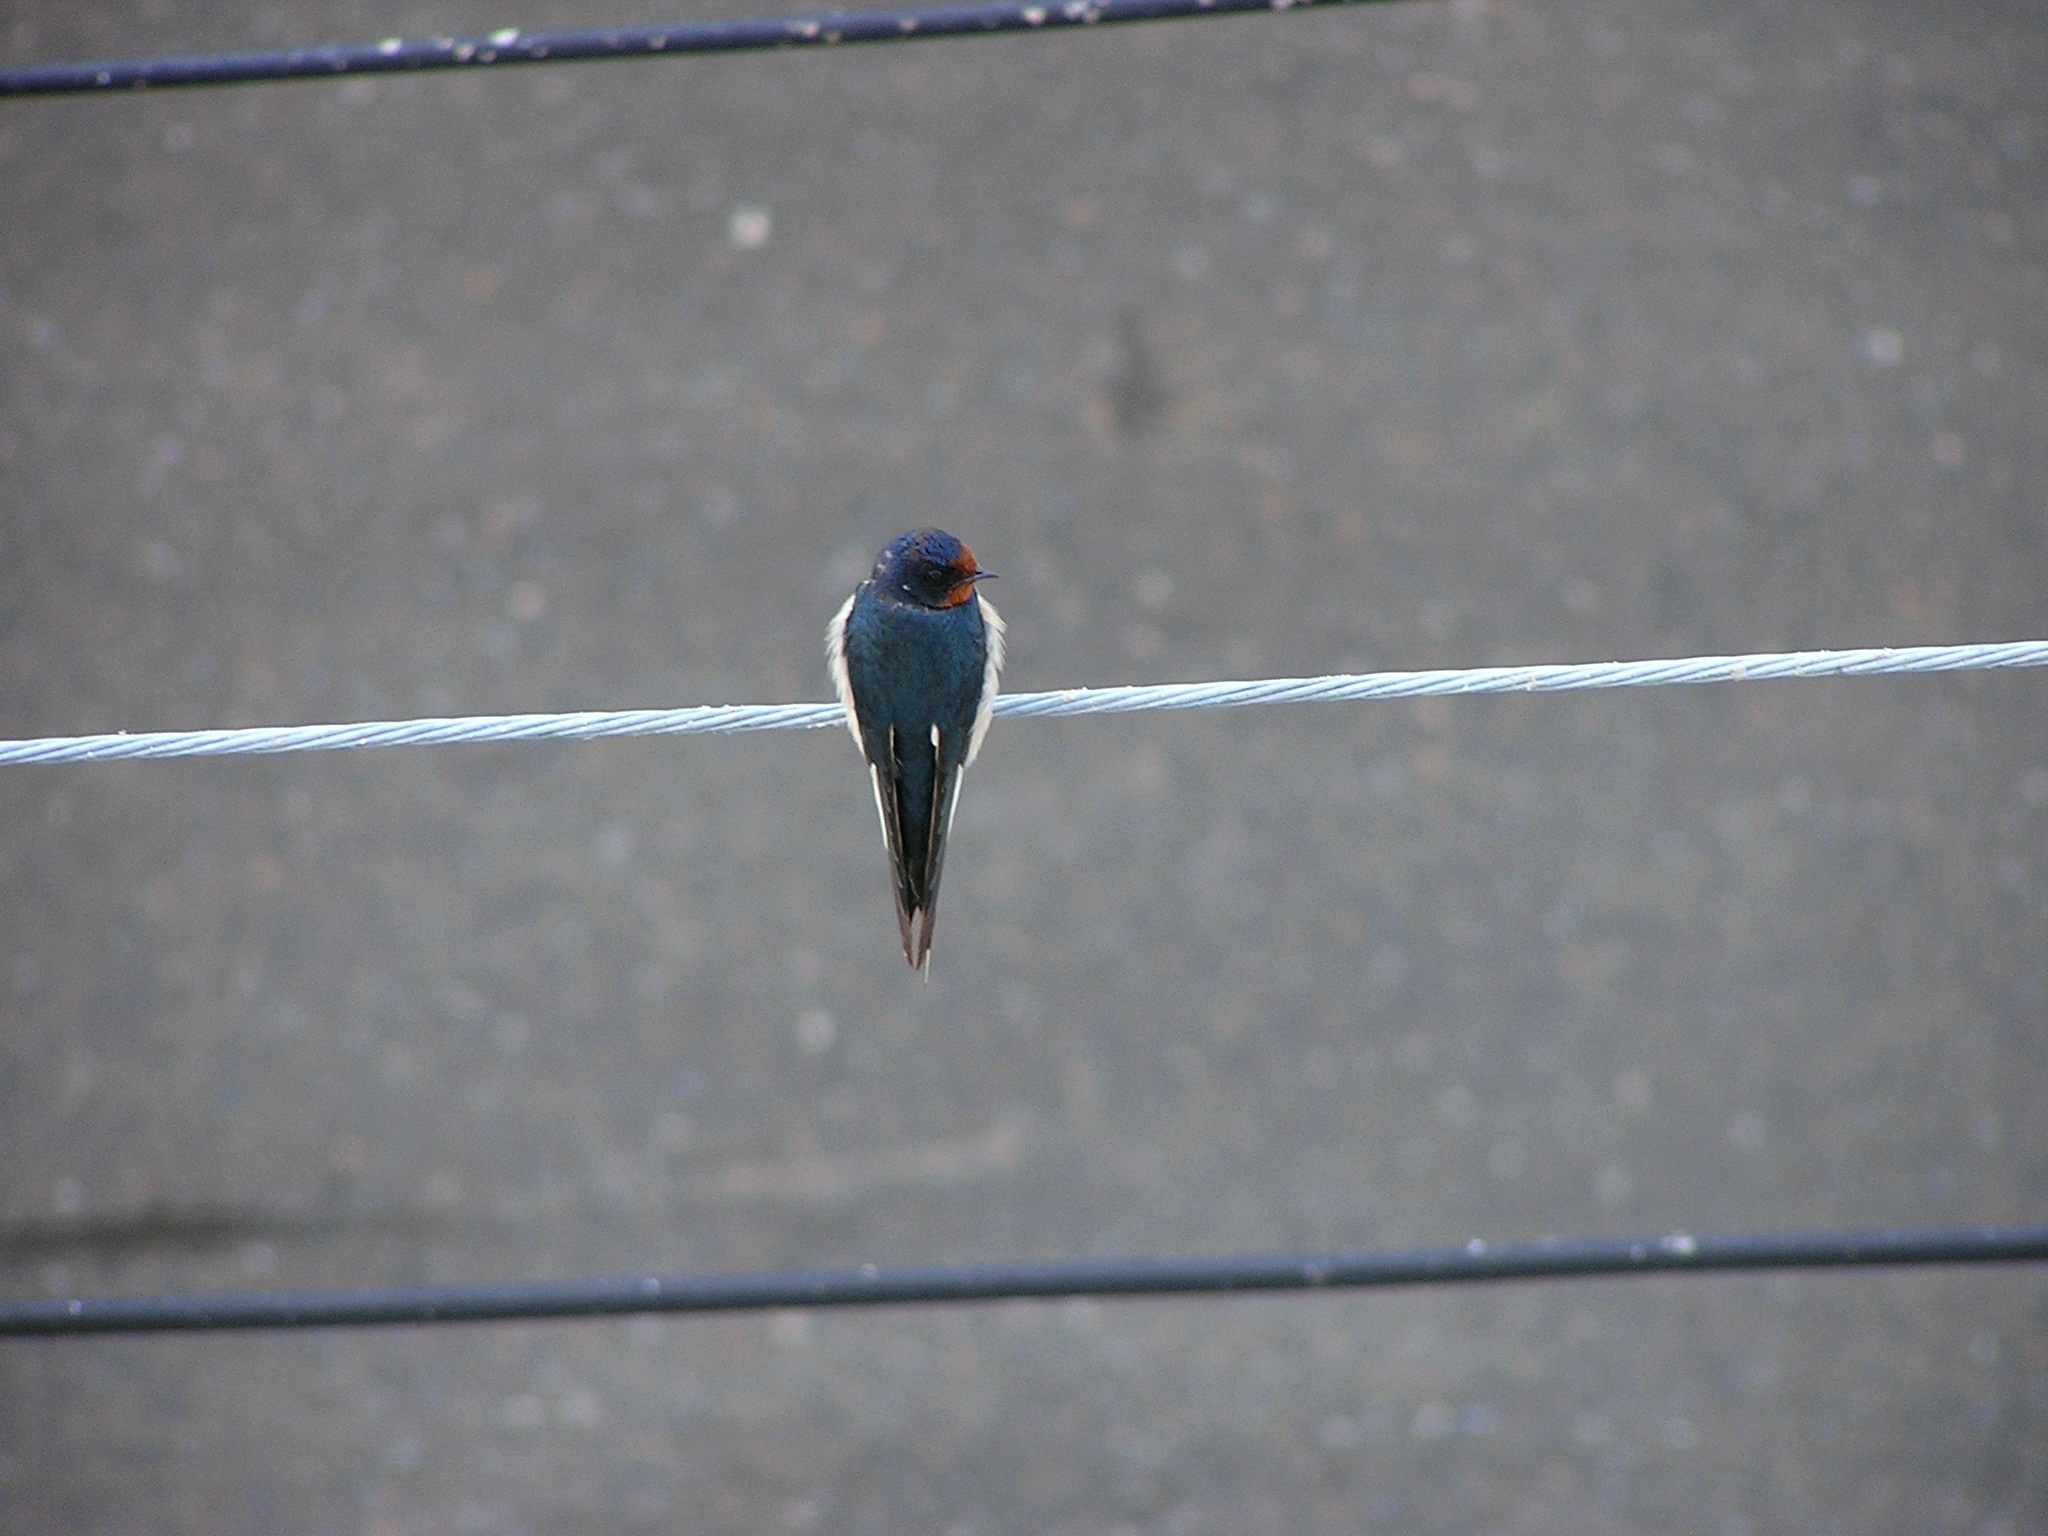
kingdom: Animalia
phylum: Chordata
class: Aves
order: Passeriformes
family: Hirundinidae
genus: Hirundo
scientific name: Hirundo rustica
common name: Barn swallow
